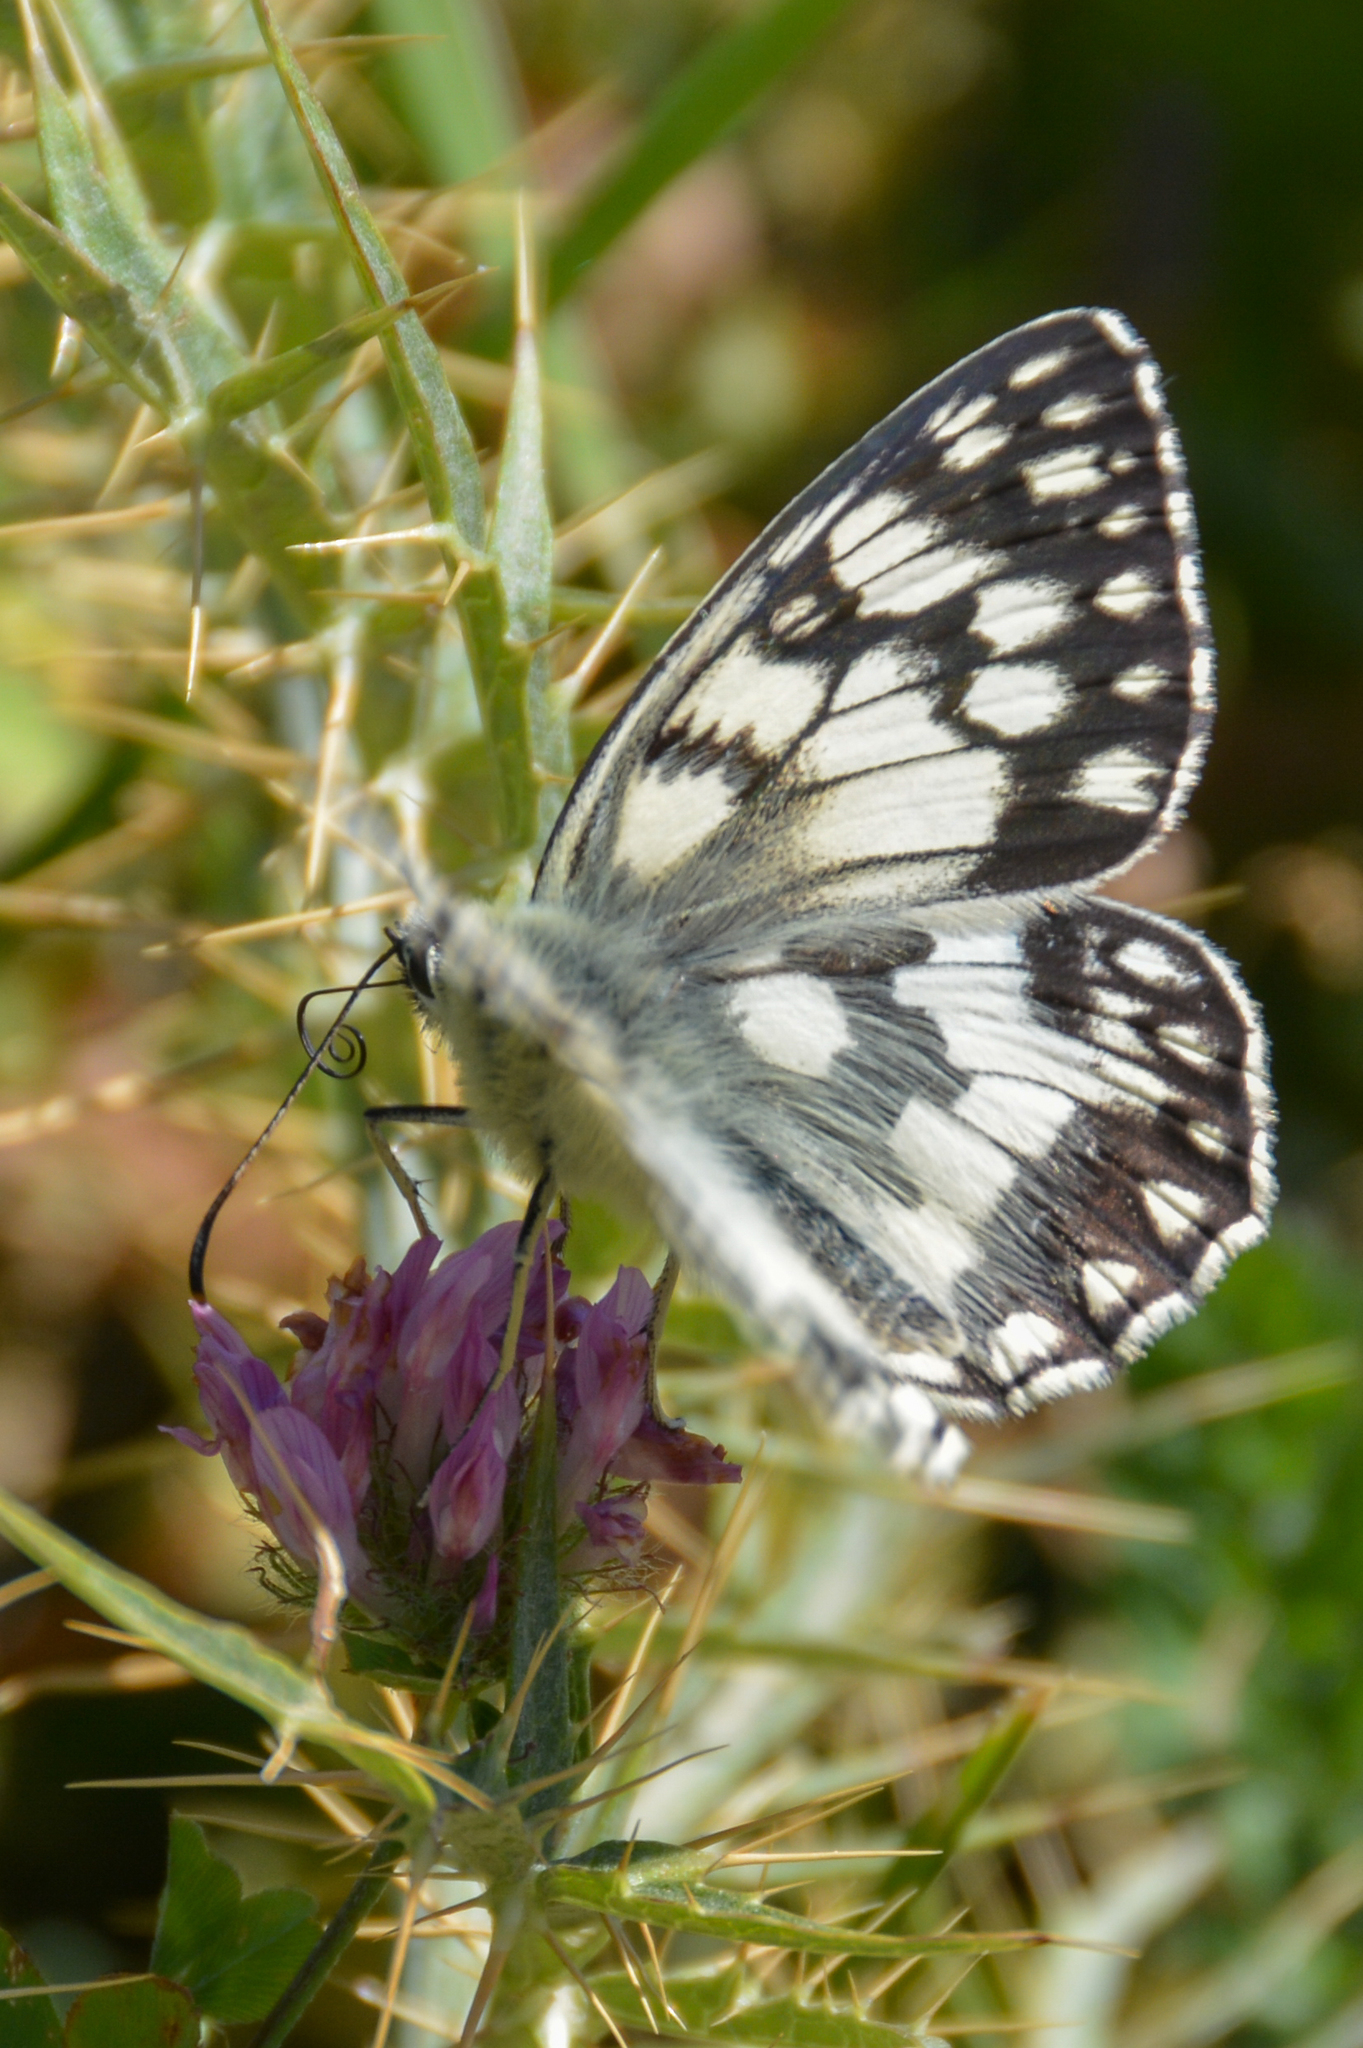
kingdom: Animalia
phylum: Arthropoda
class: Insecta
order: Lepidoptera
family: Nymphalidae
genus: Melanargia
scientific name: Melanargia japygia
